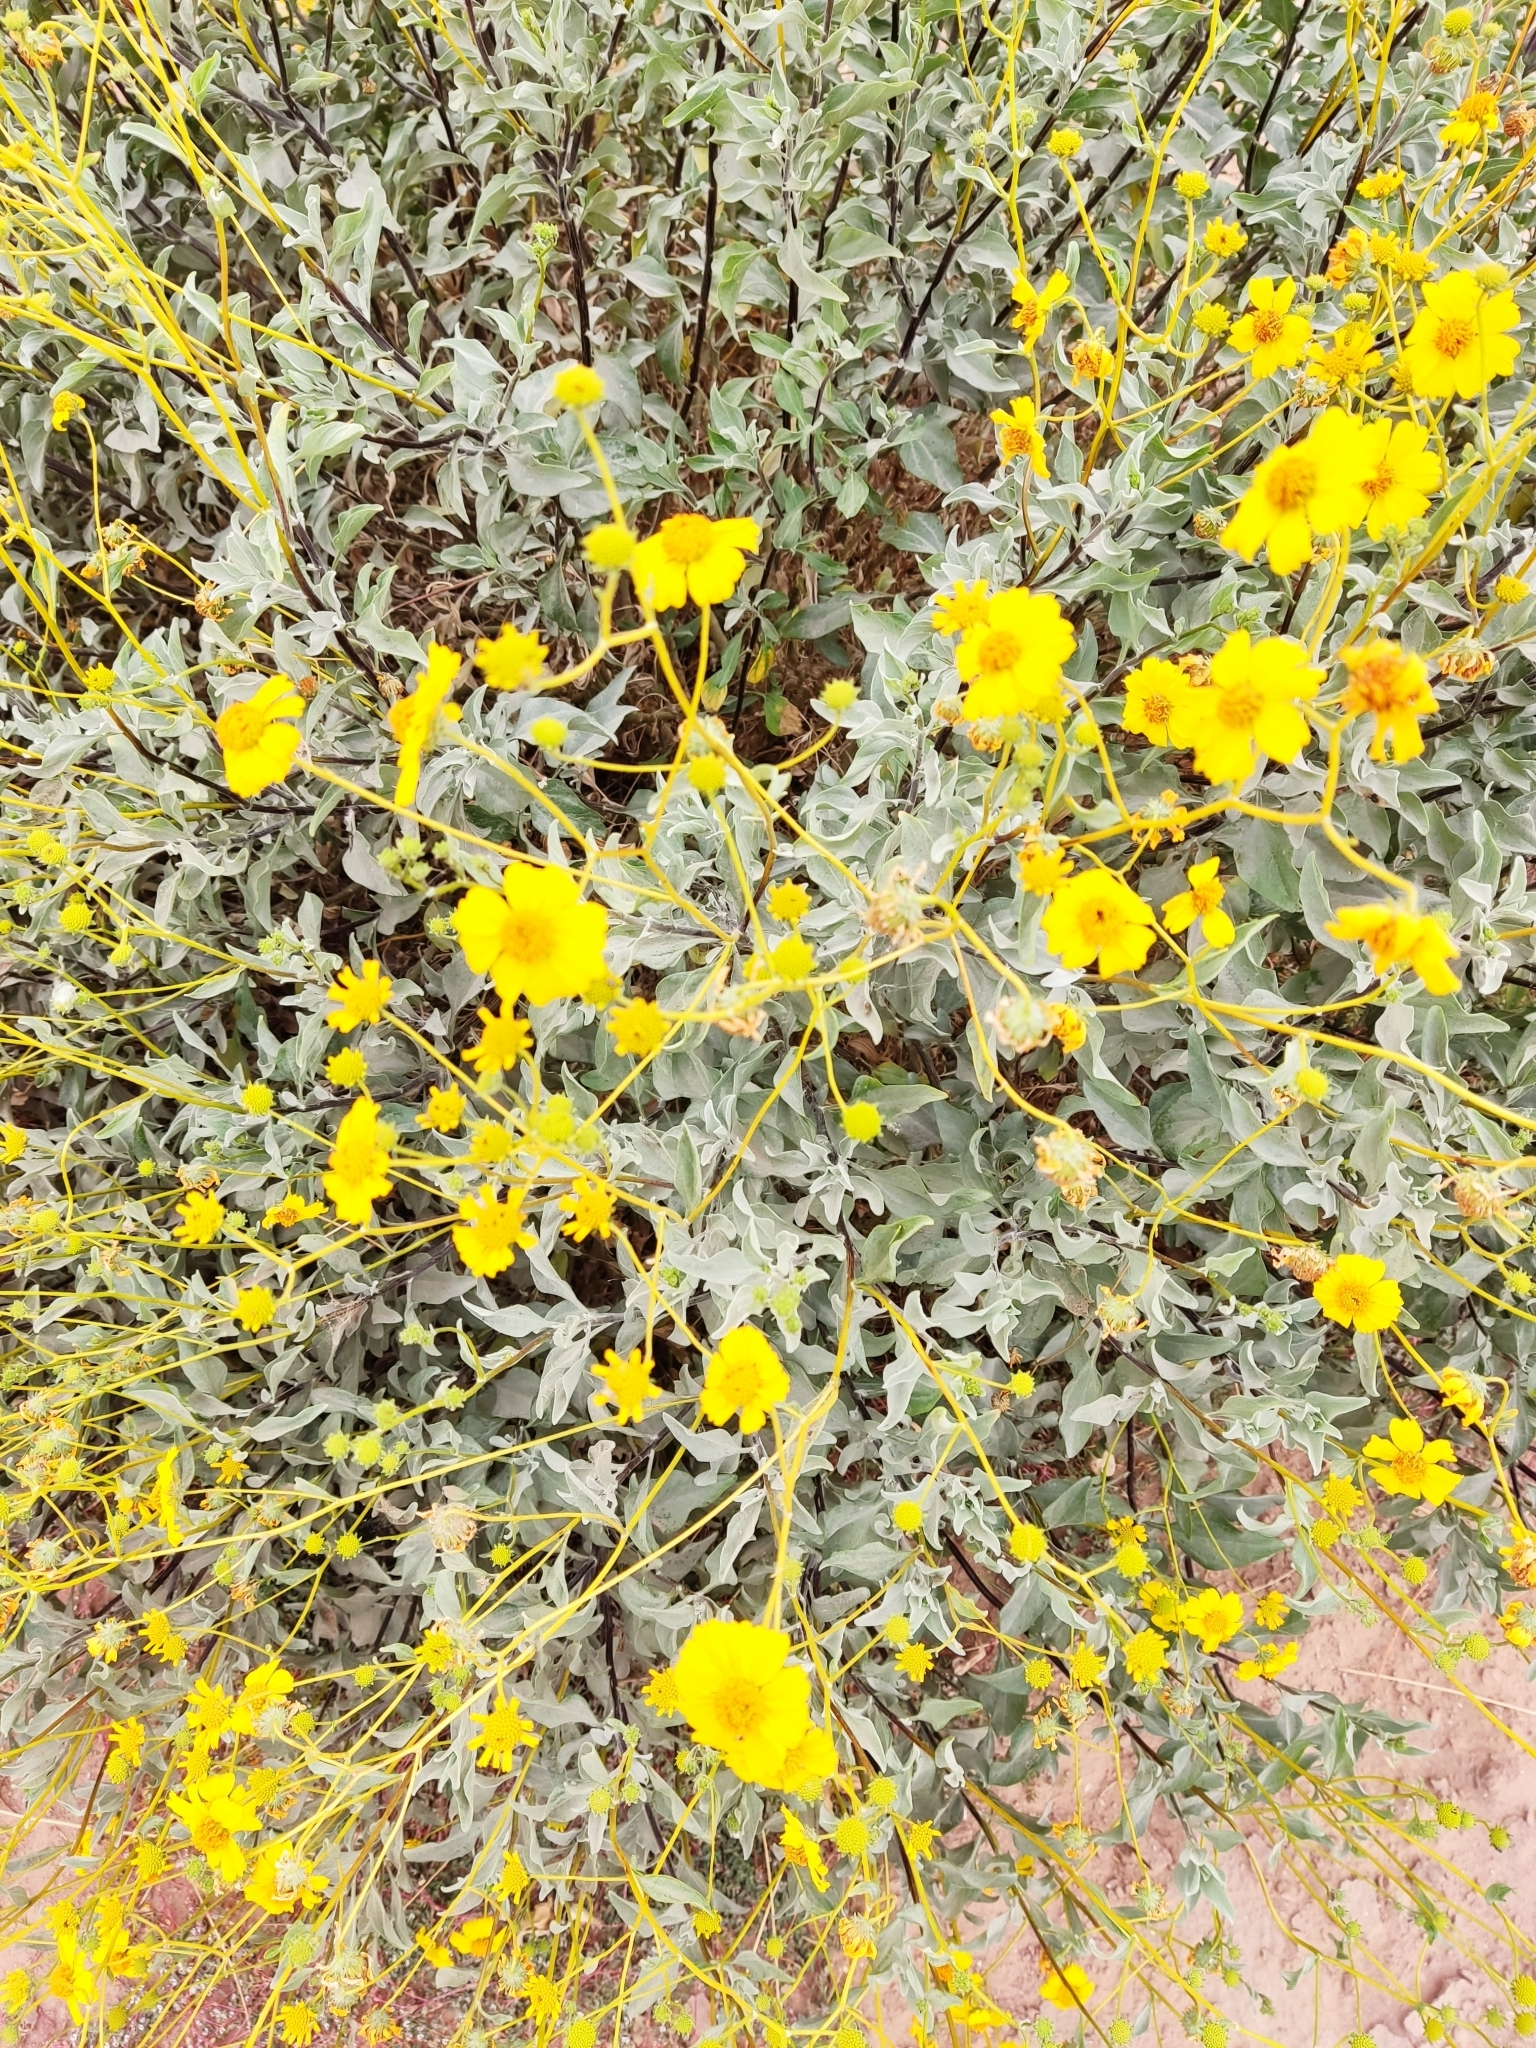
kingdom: Plantae
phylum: Tracheophyta
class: Magnoliopsida
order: Asterales
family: Asteraceae
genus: Encelia
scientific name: Encelia farinosa
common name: Brittlebush
